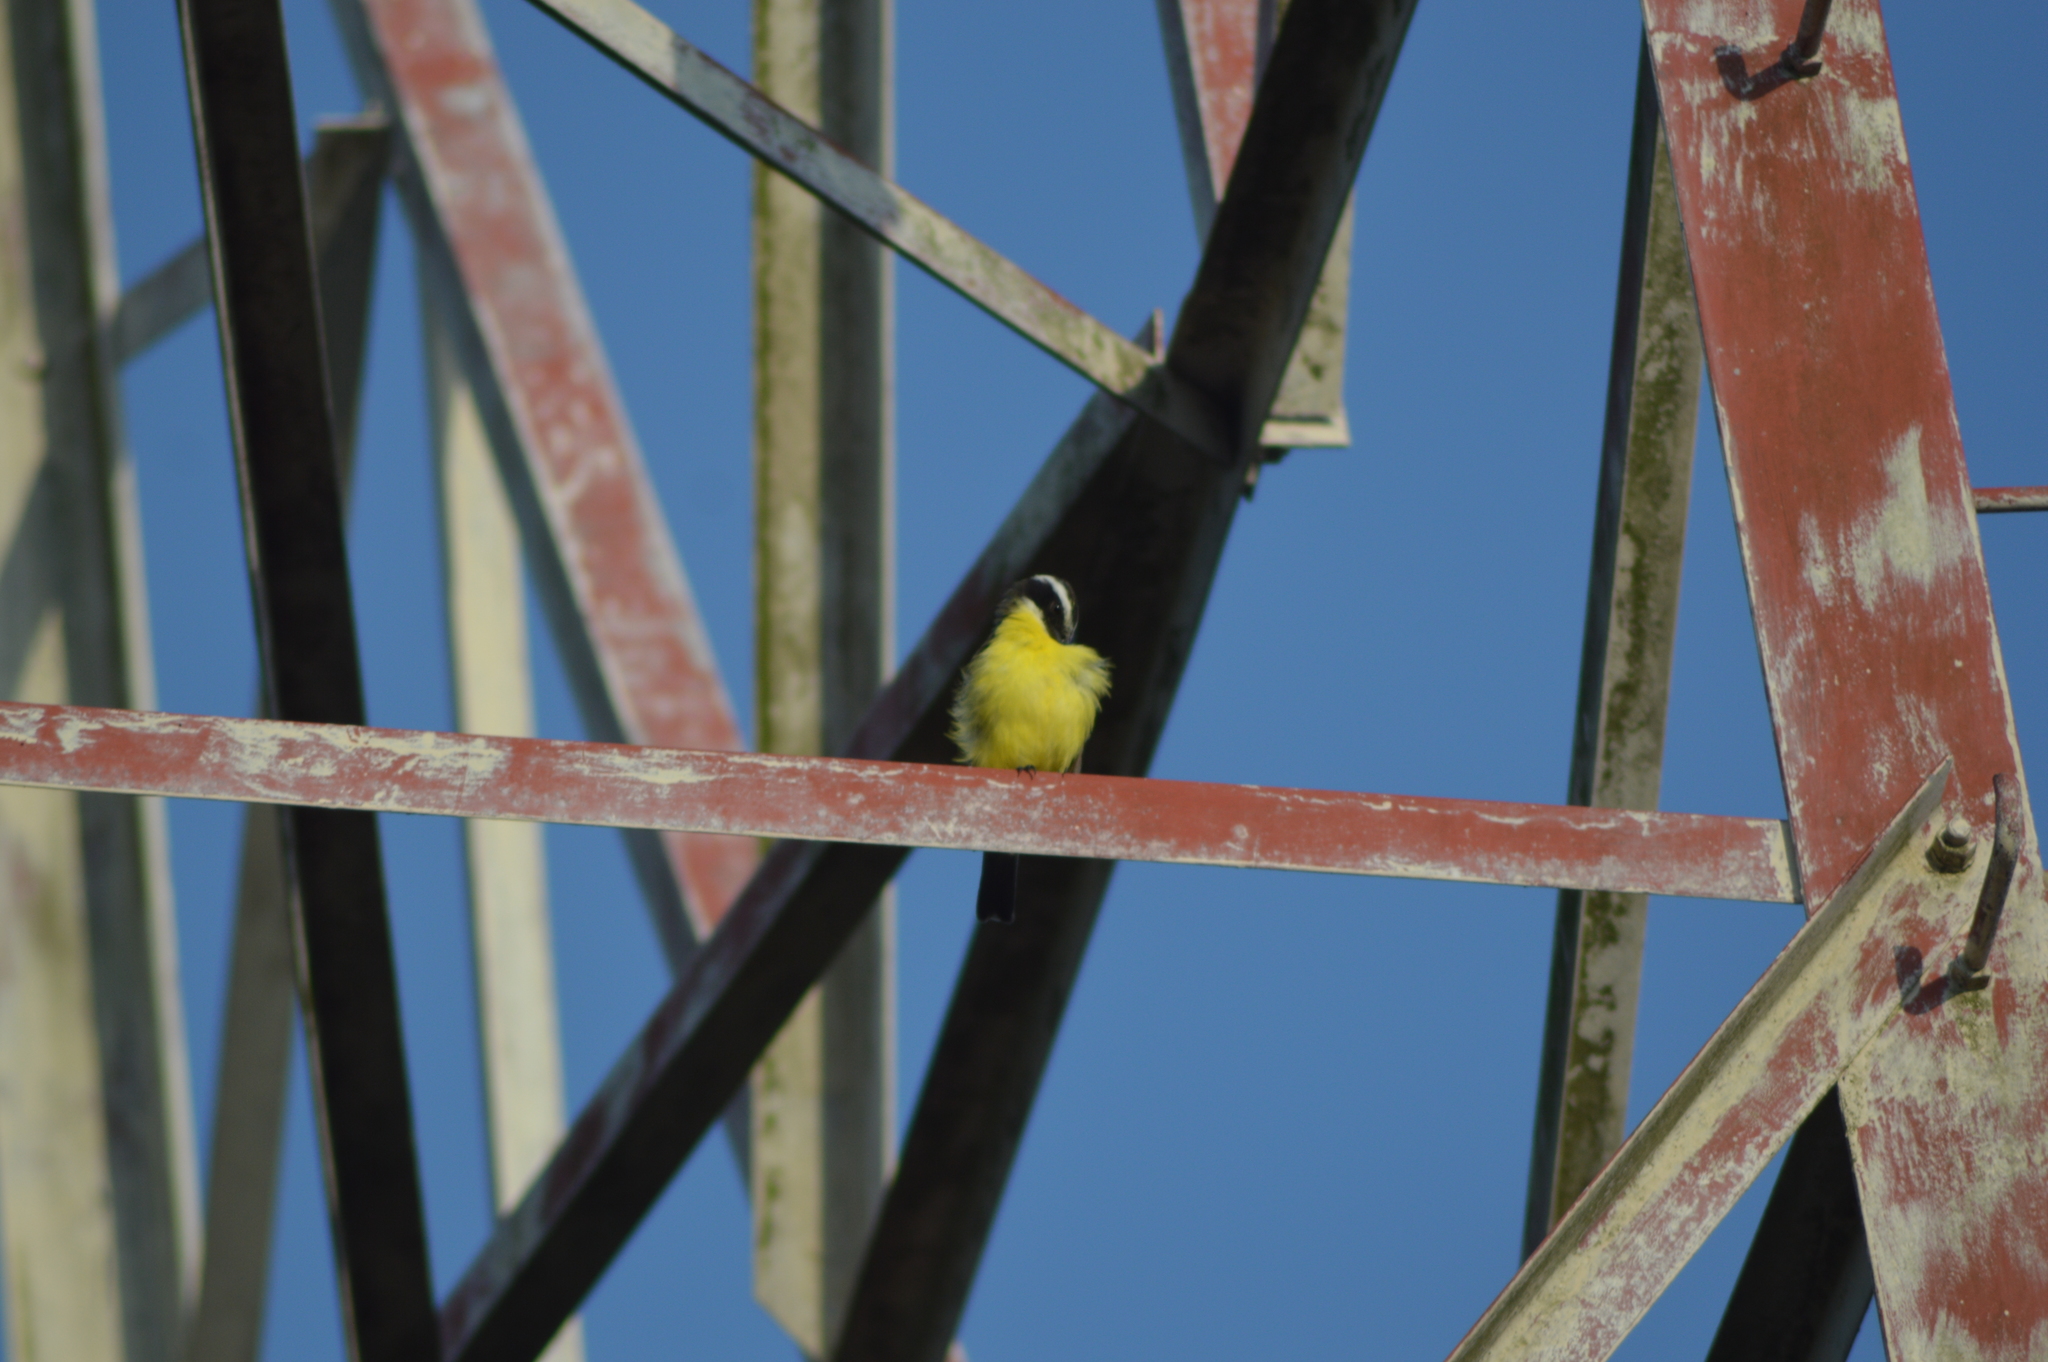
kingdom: Animalia
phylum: Chordata
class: Aves
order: Passeriformes
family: Tyrannidae
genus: Myiozetetes
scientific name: Myiozetetes similis
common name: Social flycatcher
